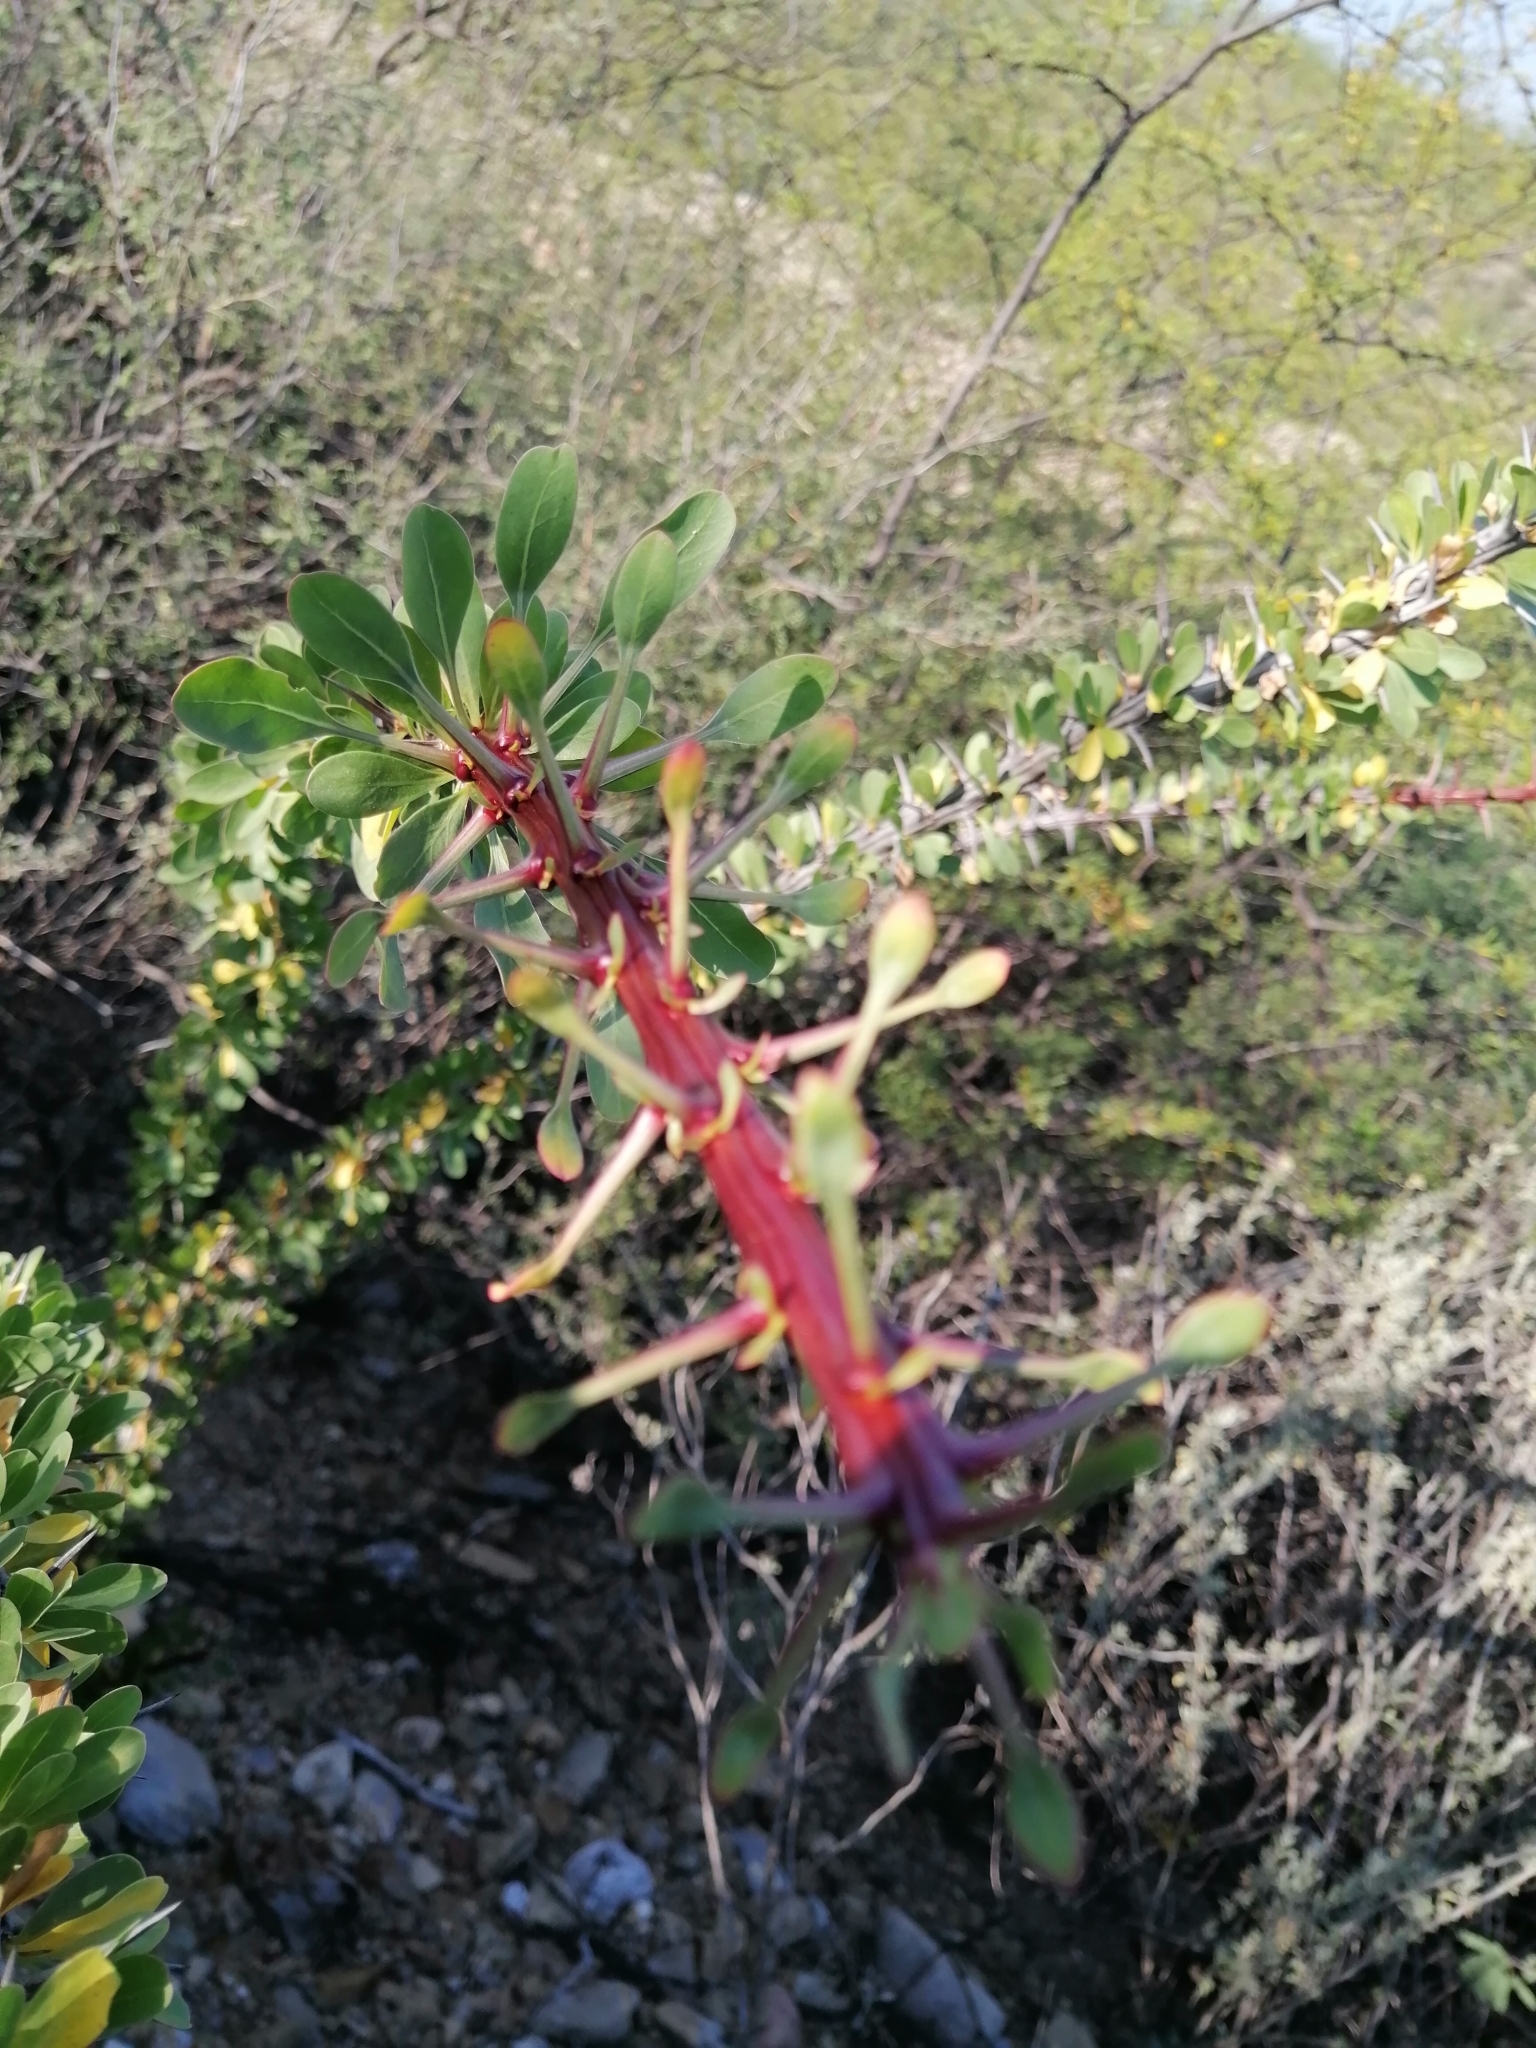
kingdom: Plantae
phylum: Tracheophyta
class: Magnoliopsida
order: Ericales
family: Fouquieriaceae
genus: Fouquieria
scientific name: Fouquieria splendens
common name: Vine-cactus
